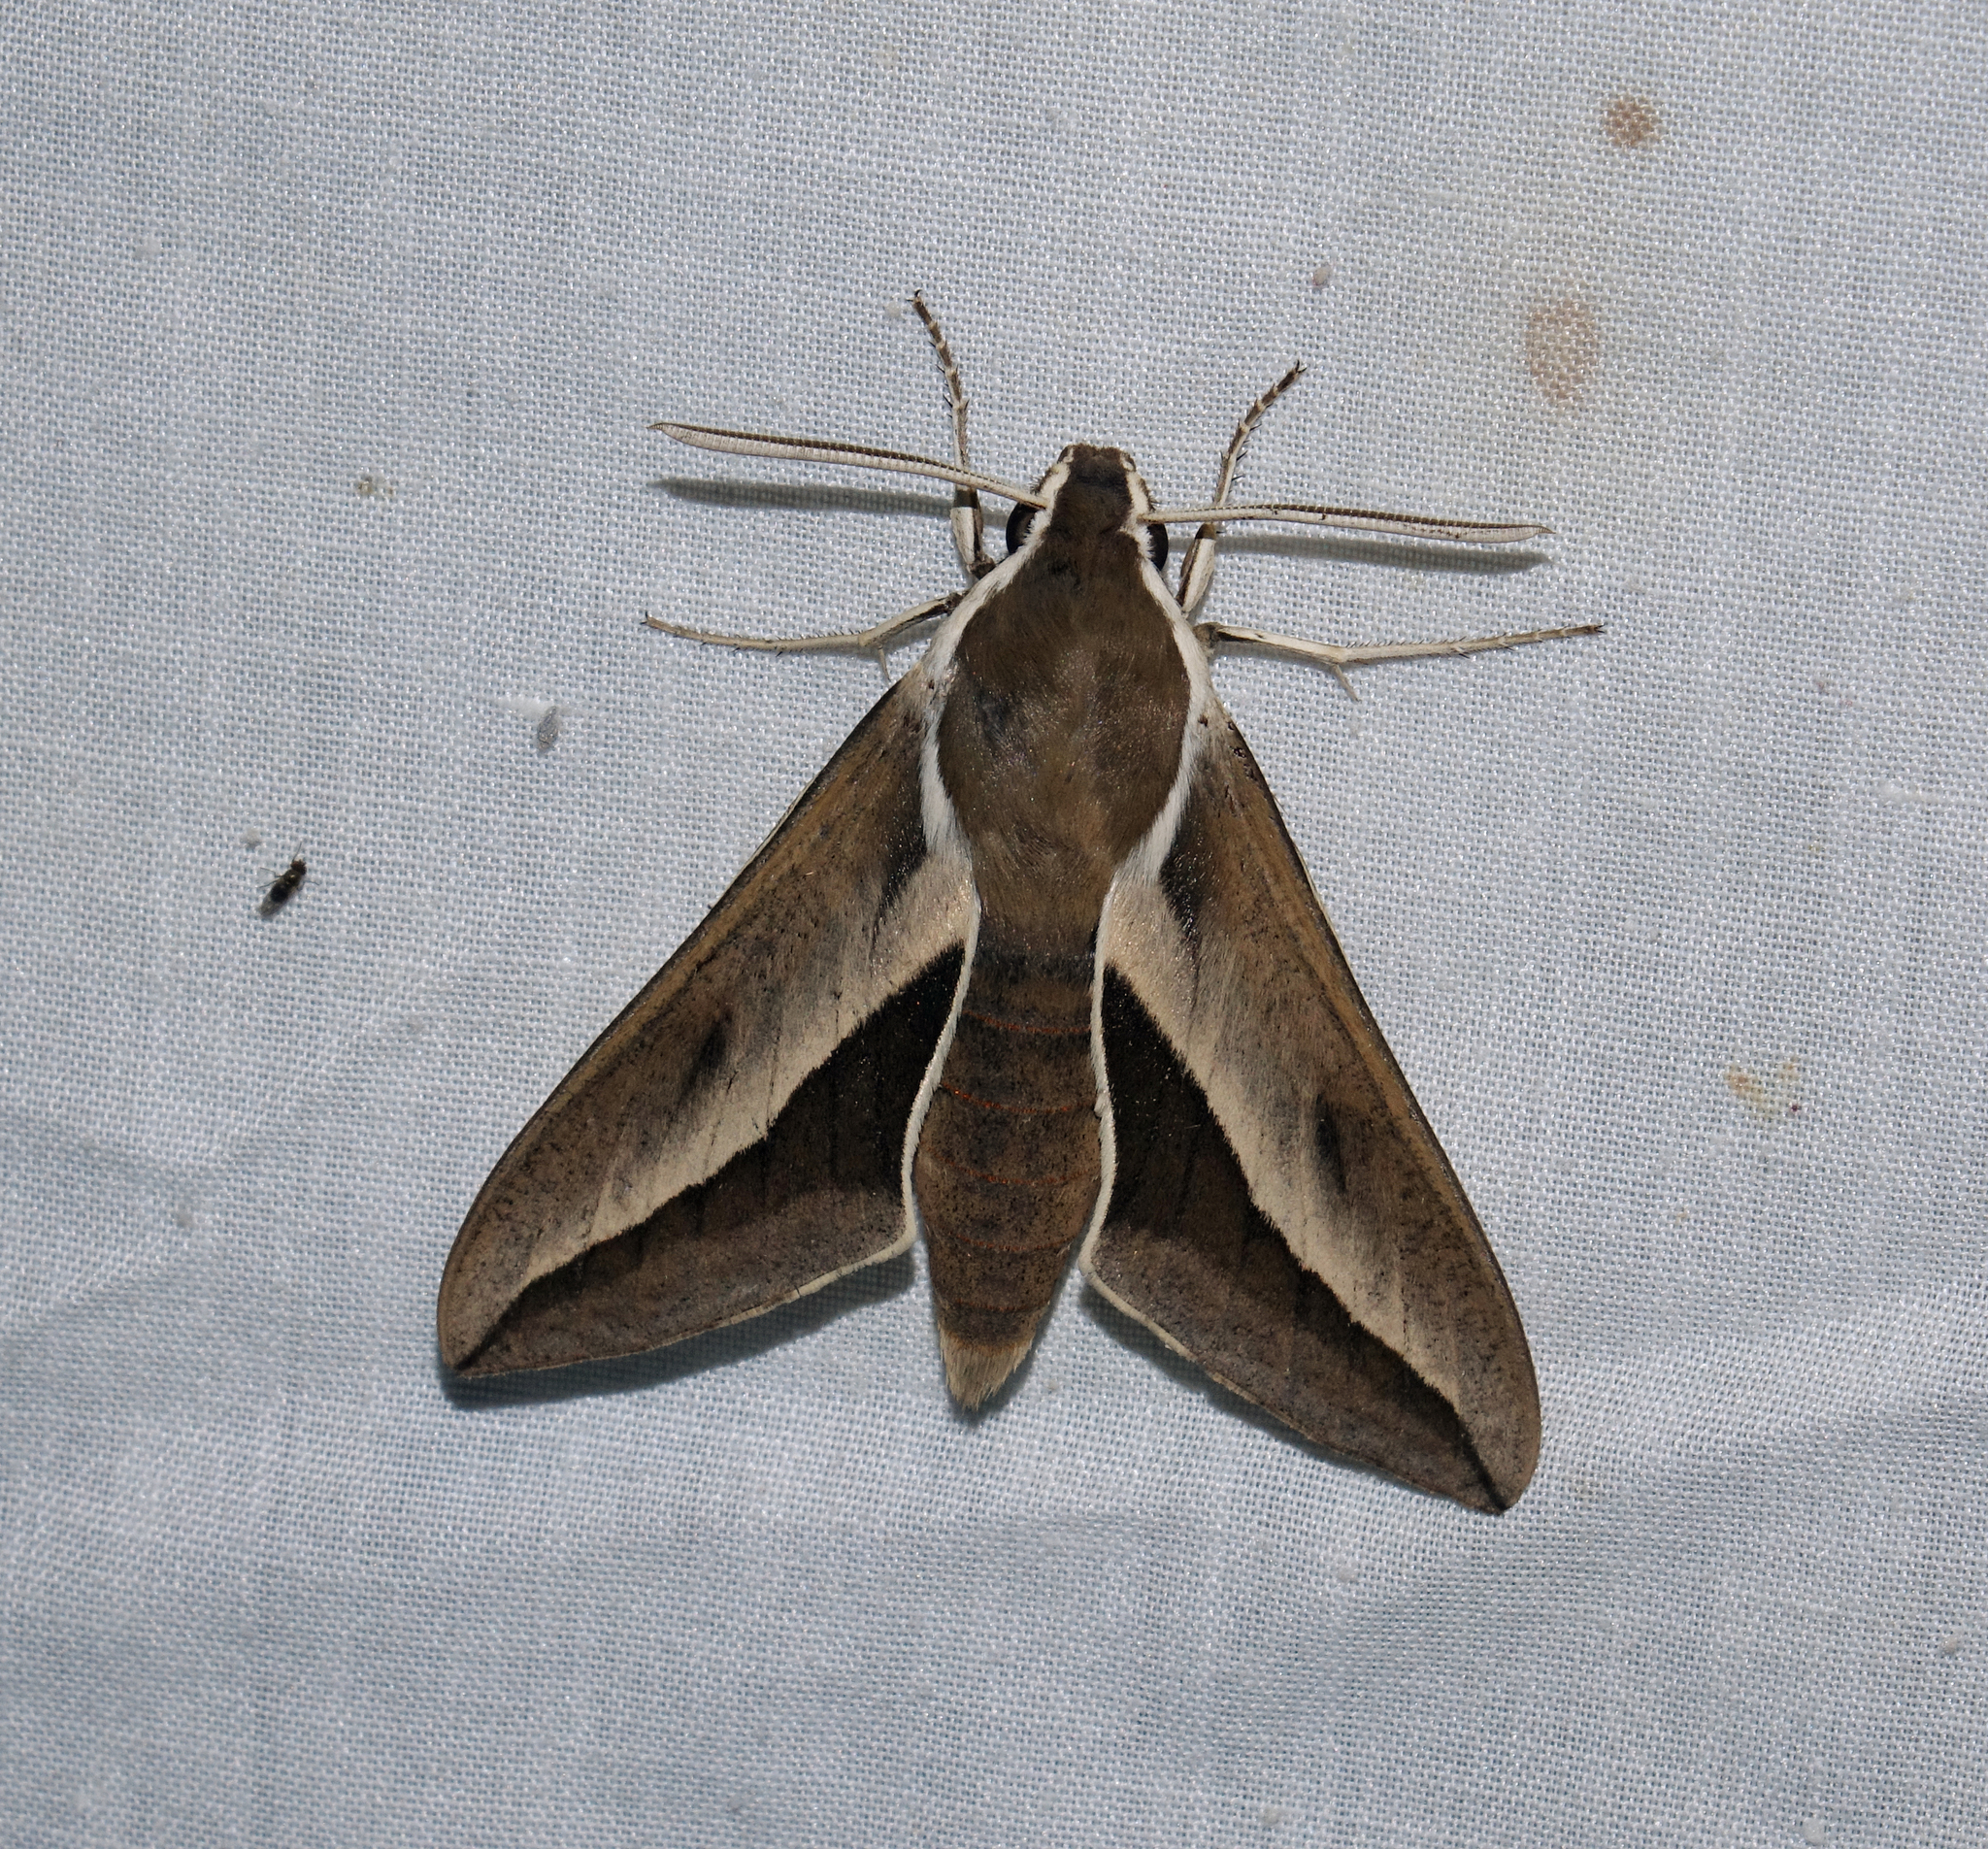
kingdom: Animalia
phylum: Arthropoda
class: Insecta
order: Lepidoptera
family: Sphingidae
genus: Hyles
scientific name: Hyles hippophaes
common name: Seathorn hawk-moth
